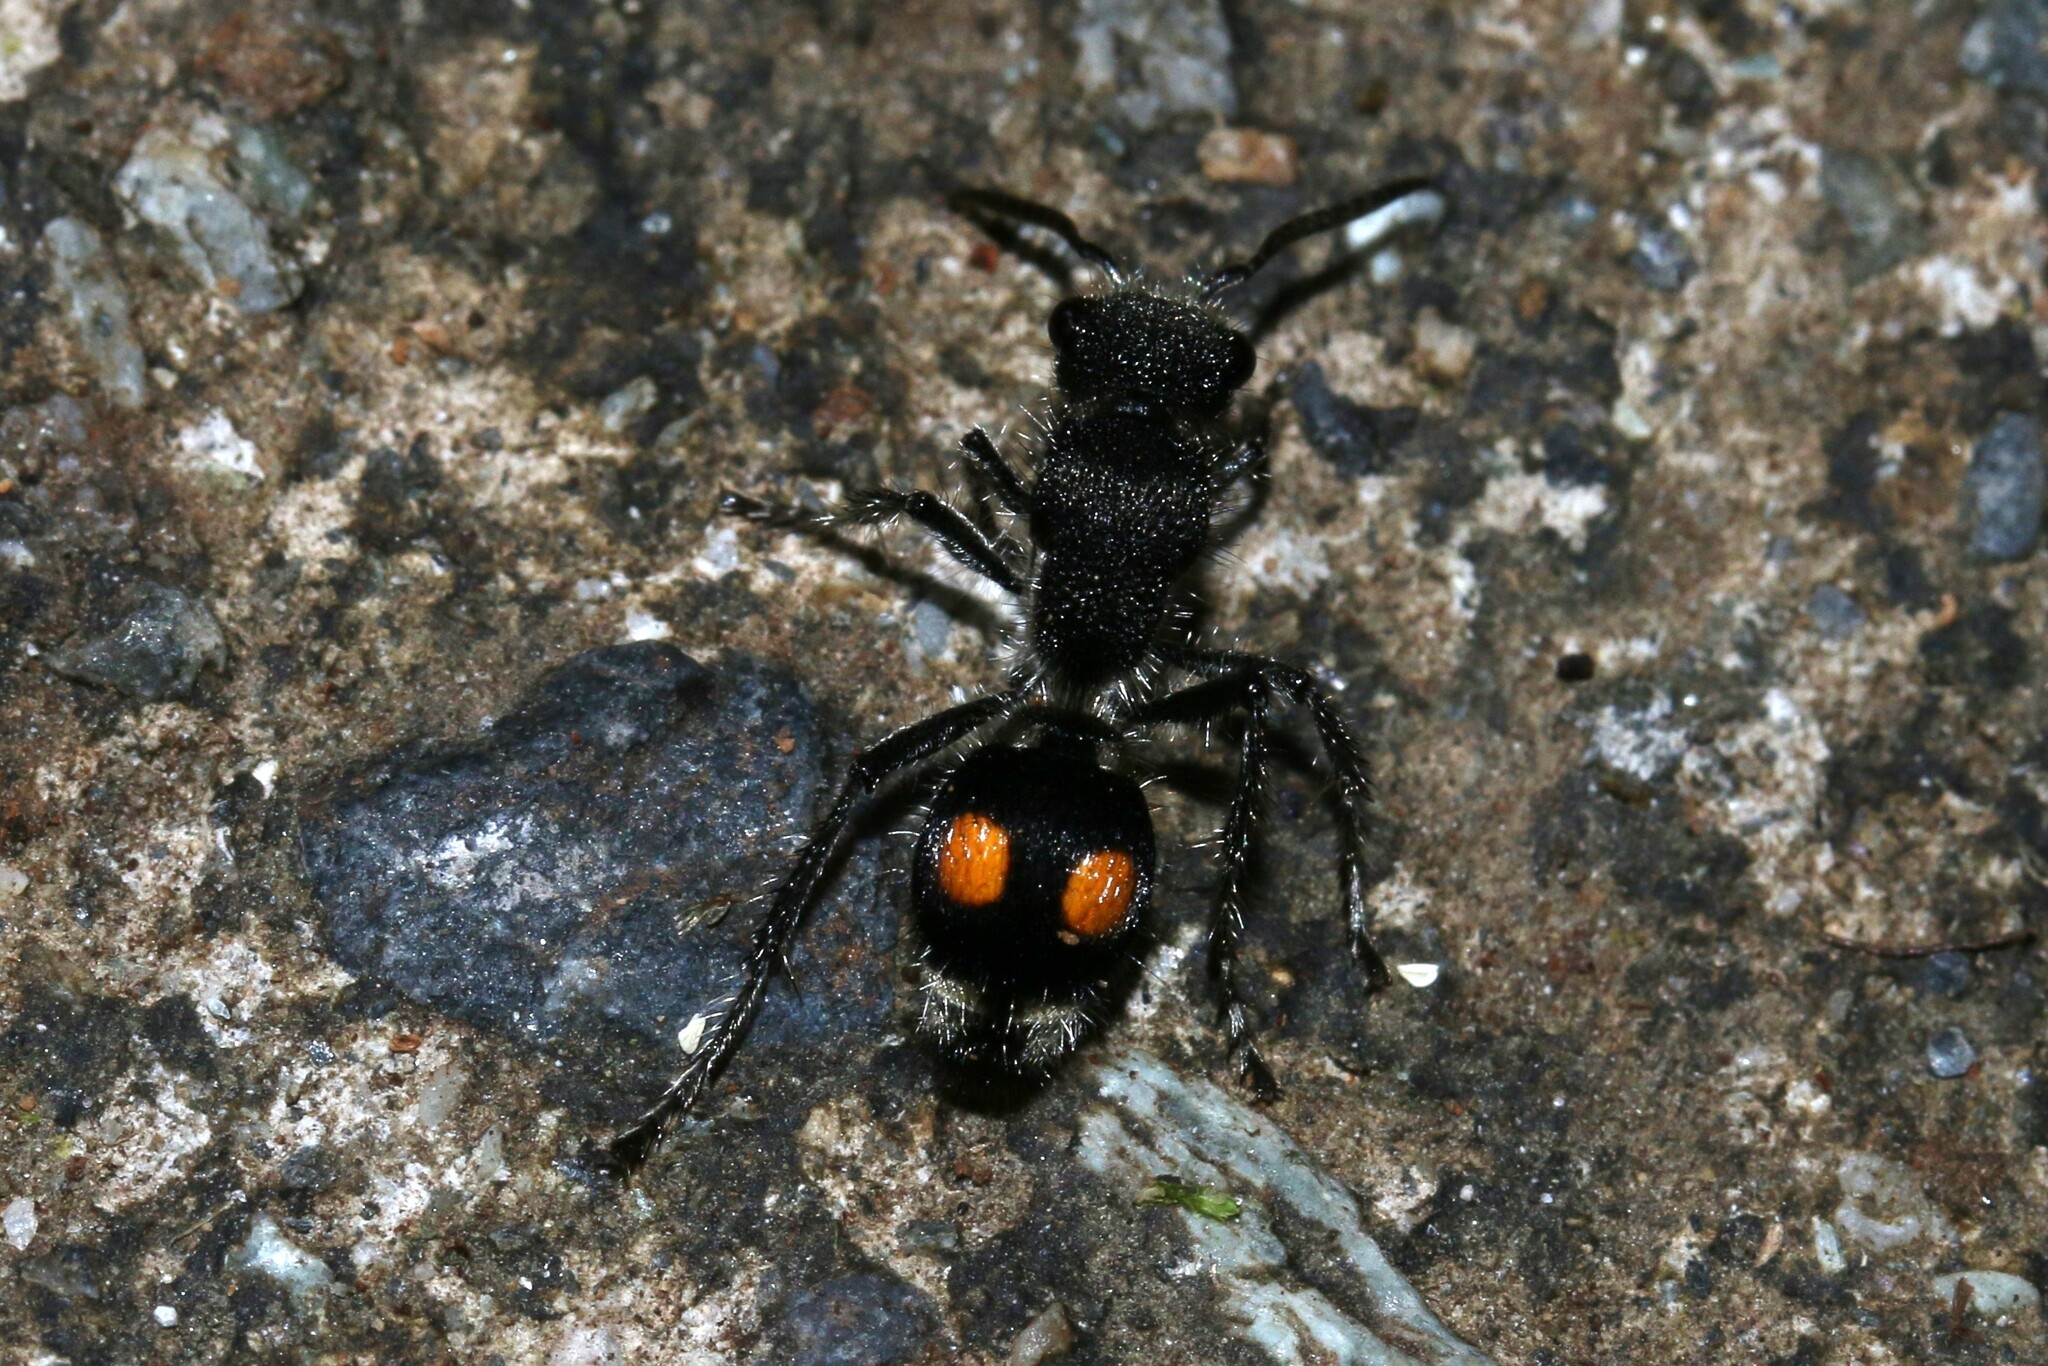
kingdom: Animalia
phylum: Arthropoda
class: Insecta
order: Hymenoptera
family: Mutillidae
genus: Hoplomutilla
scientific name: Hoplomutilla
